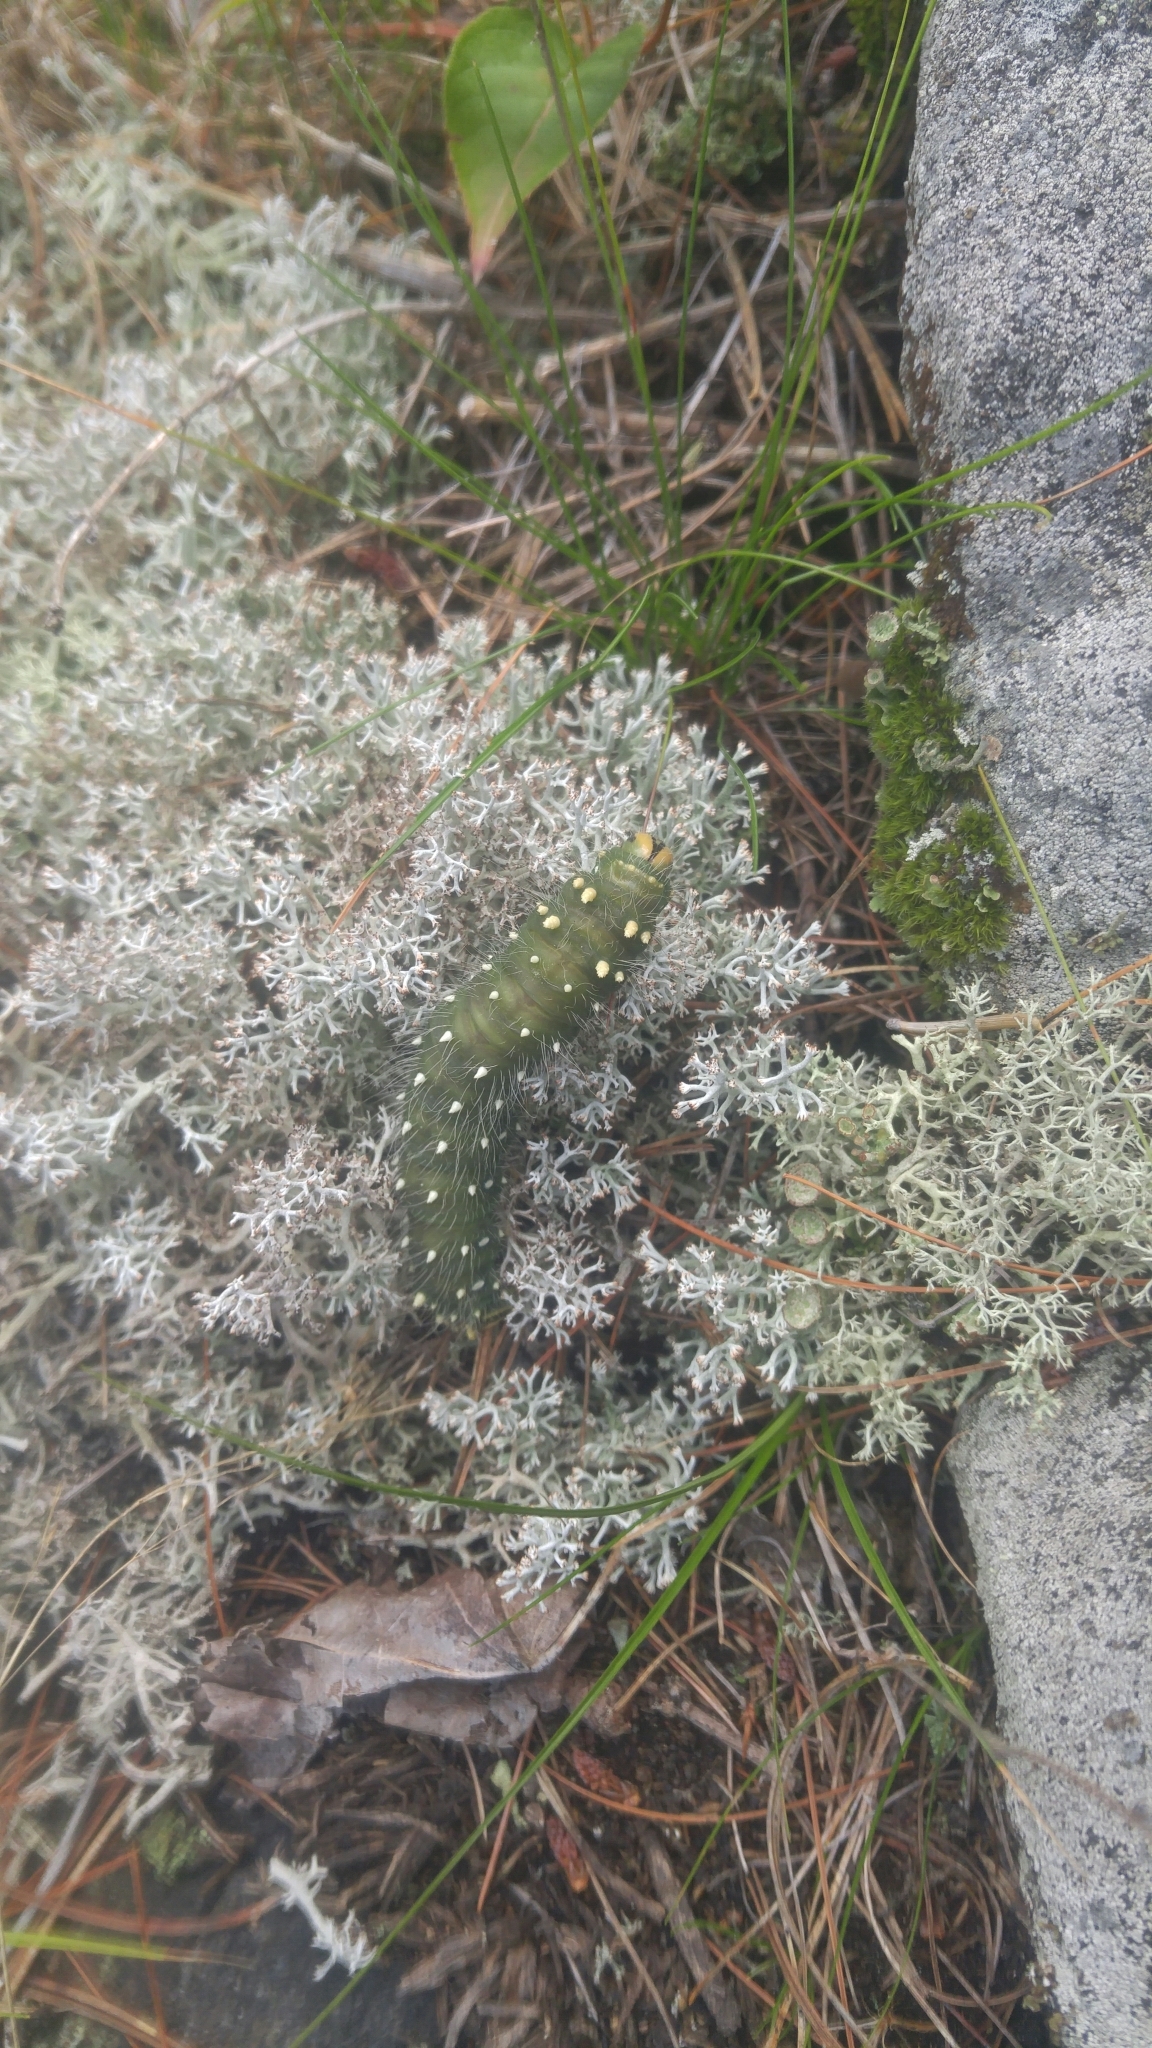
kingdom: Animalia
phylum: Arthropoda
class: Insecta
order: Lepidoptera
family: Saturniidae
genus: Eacles
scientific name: Eacles
